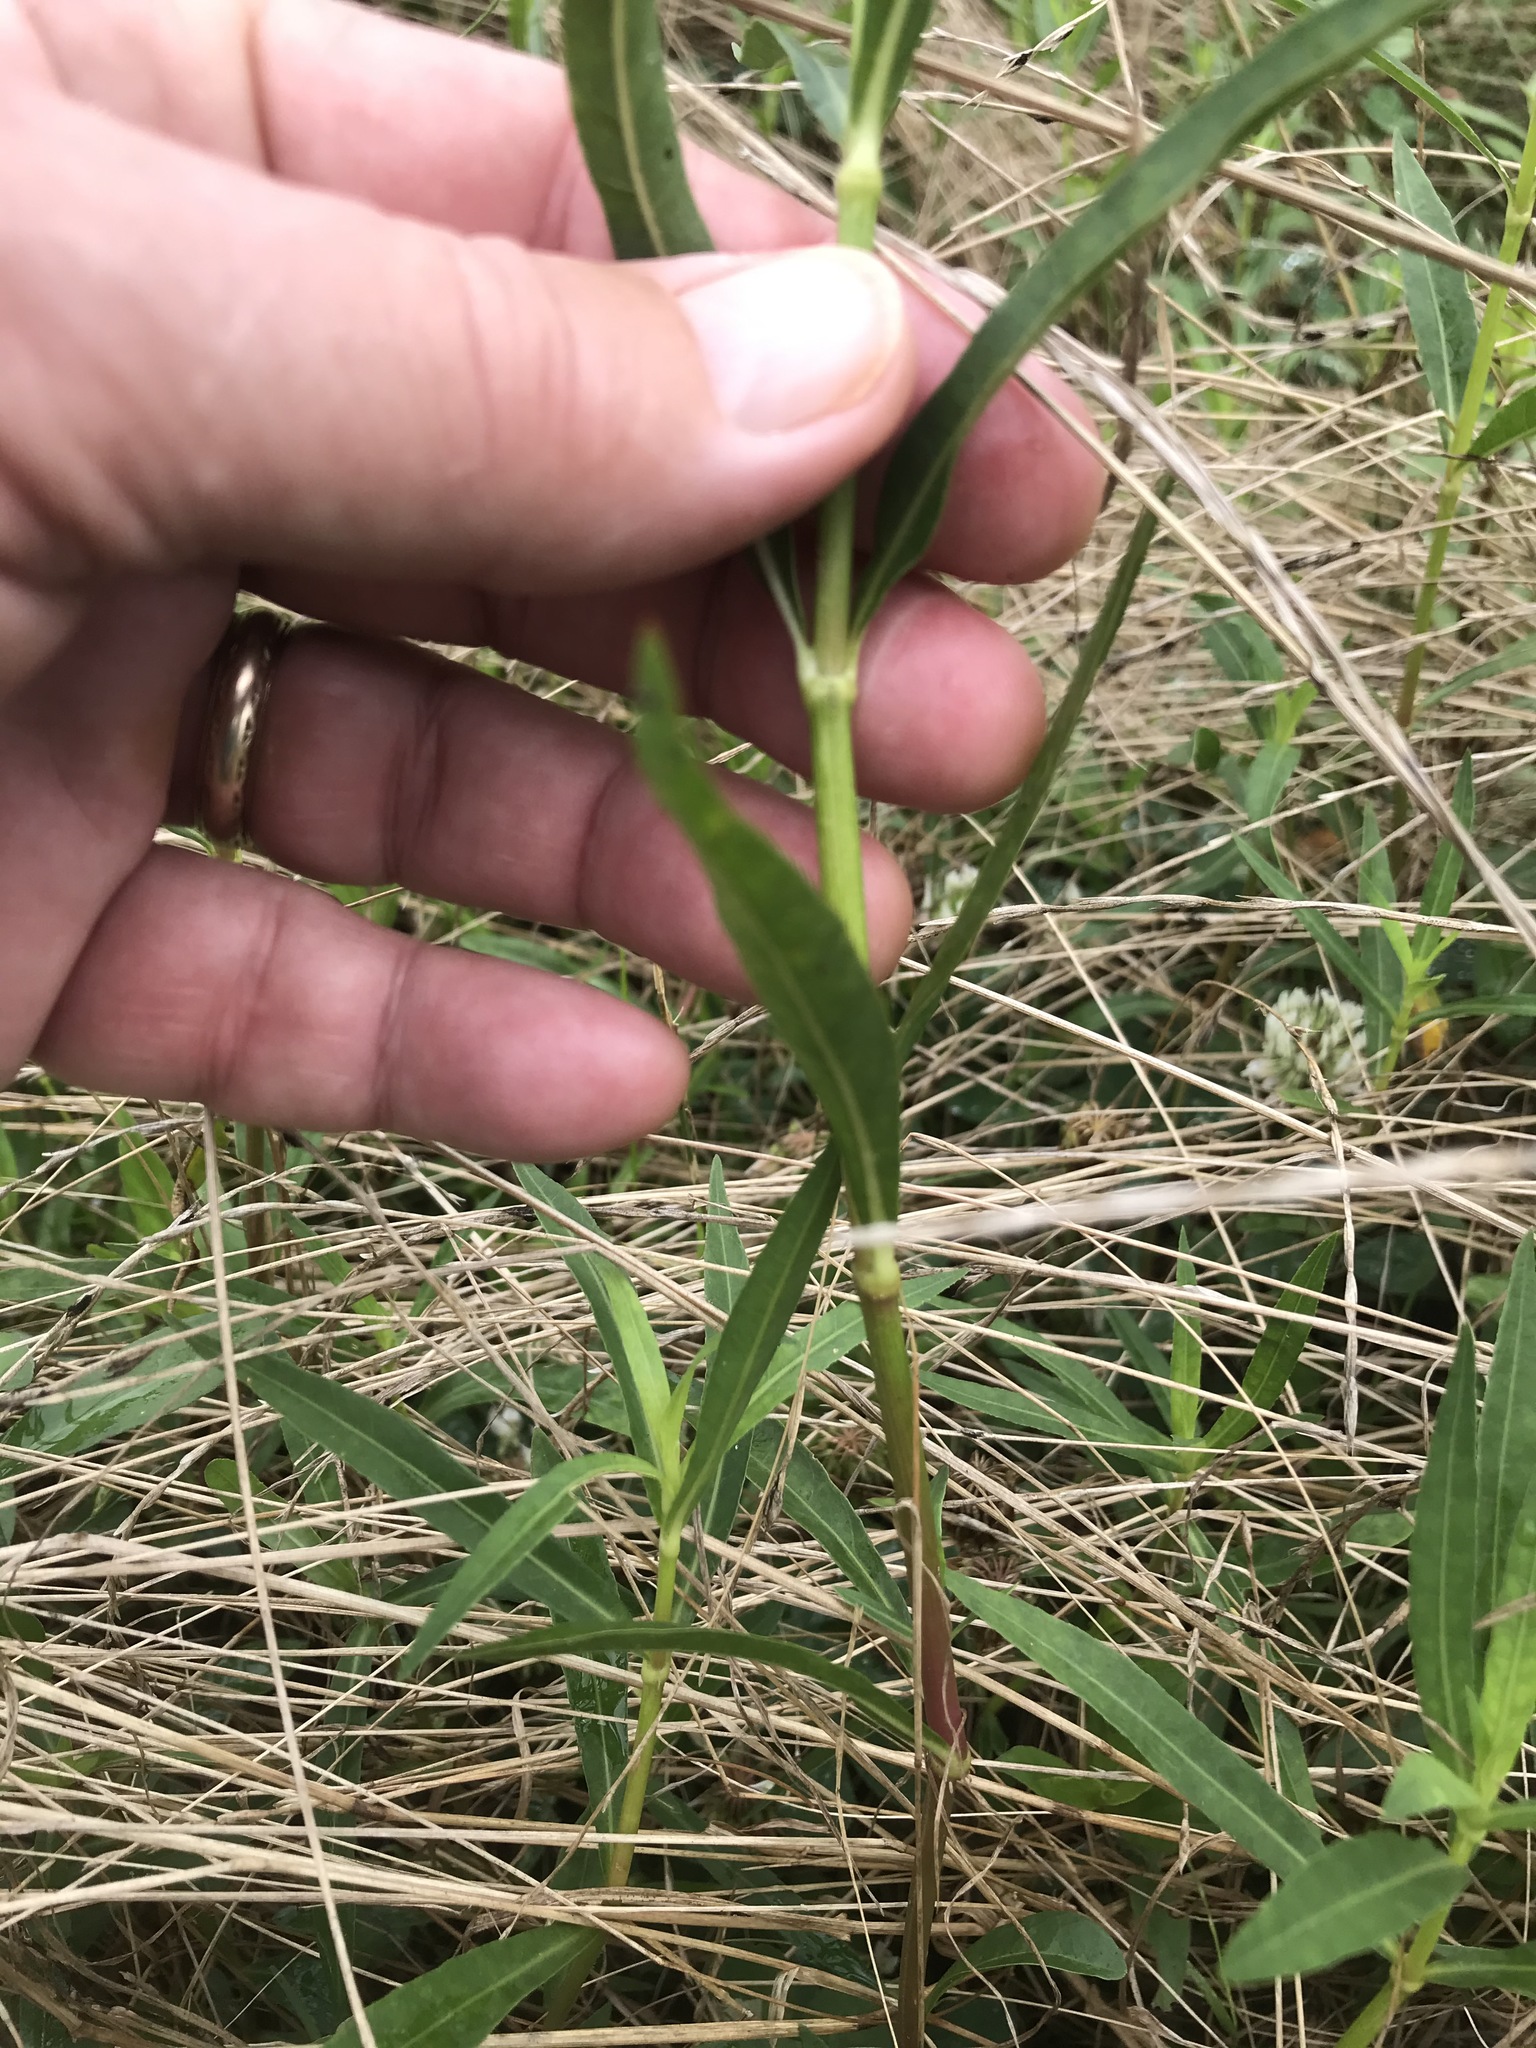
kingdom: Plantae
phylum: Tracheophyta
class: Magnoliopsida
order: Caryophyllales
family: Amaranthaceae
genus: Alternanthera
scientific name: Alternanthera philoxeroides
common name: Alligatorweed
